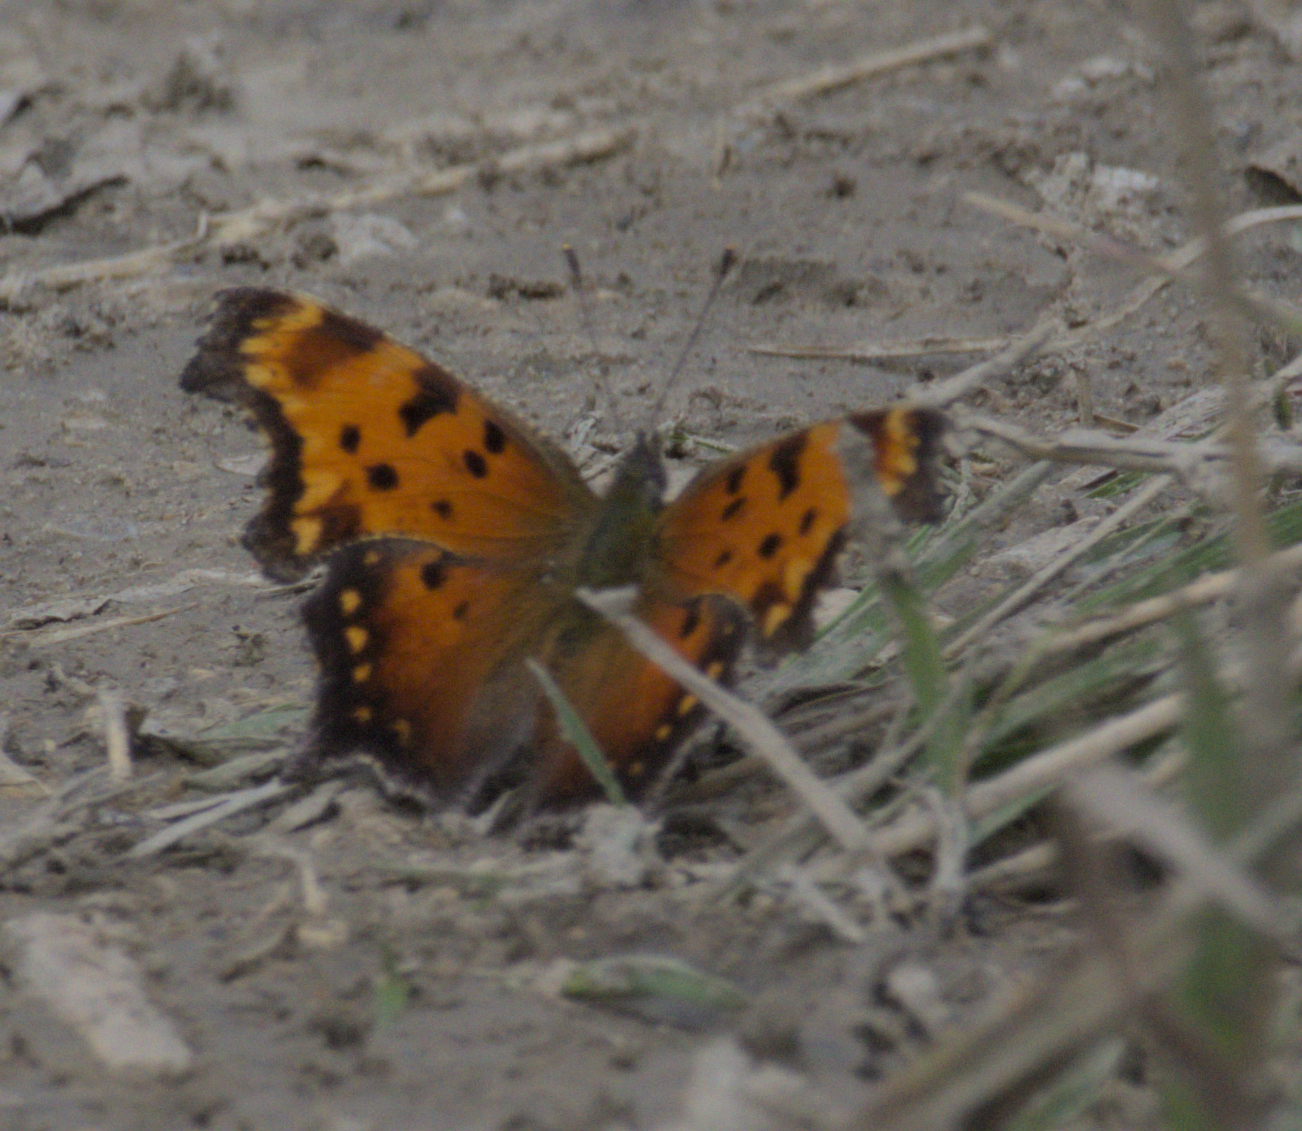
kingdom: Animalia
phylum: Arthropoda
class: Insecta
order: Lepidoptera
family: Nymphalidae
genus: Polygonia
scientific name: Polygonia progne
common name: Gray comma
